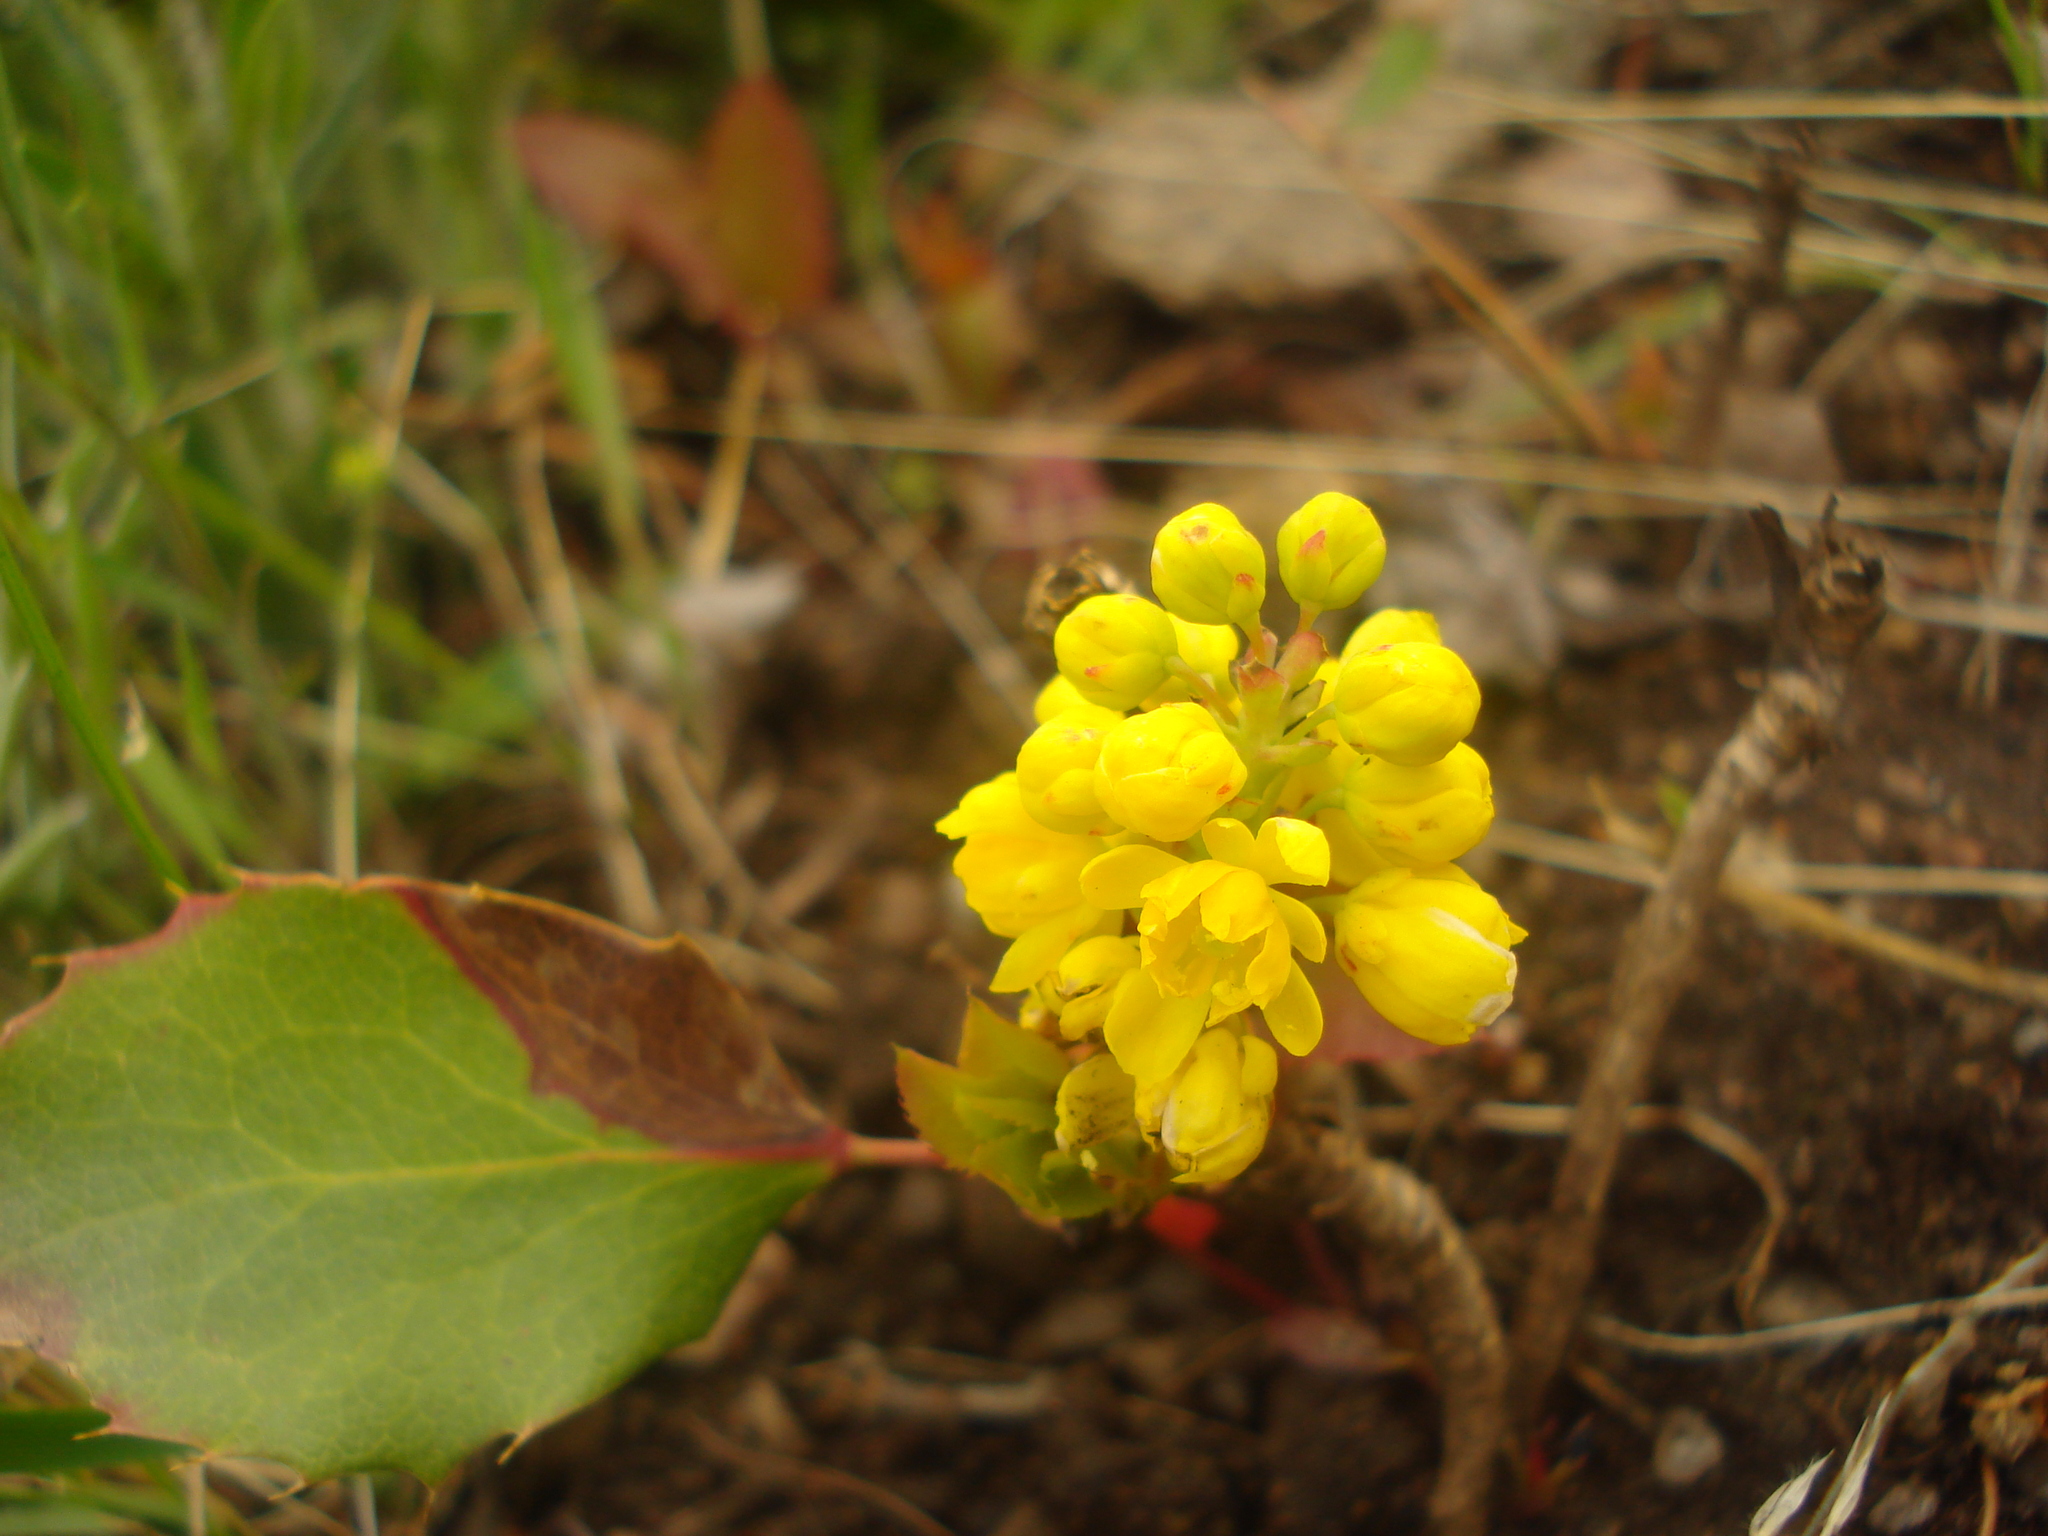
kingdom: Plantae
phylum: Tracheophyta
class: Magnoliopsida
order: Ranunculales
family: Berberidaceae
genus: Mahonia
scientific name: Mahonia repens
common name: Creeping oregon-grape
